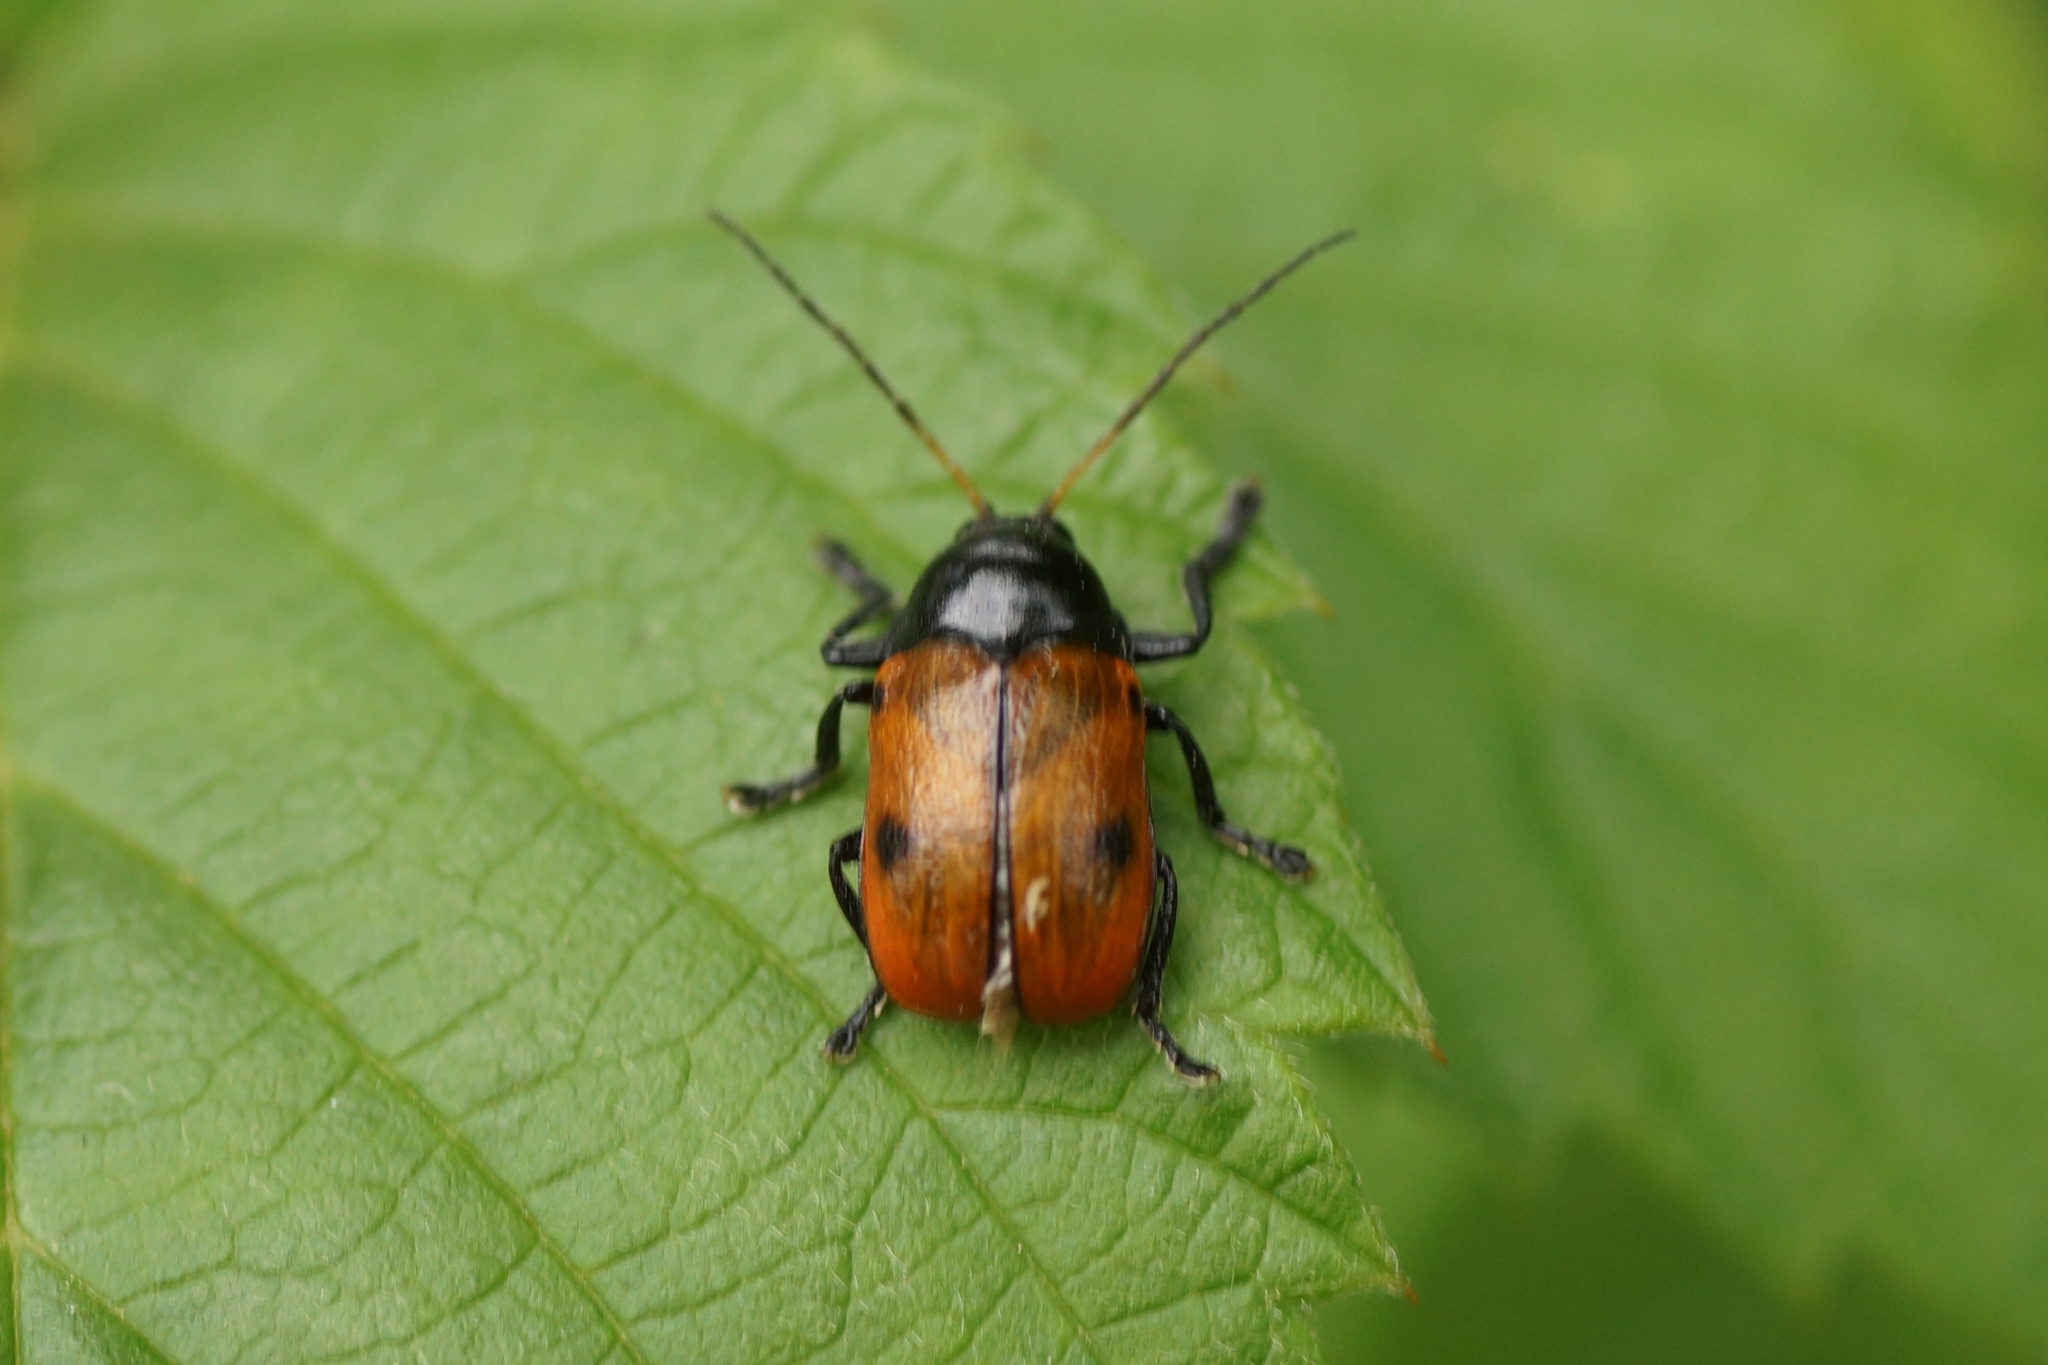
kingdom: Animalia
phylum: Arthropoda
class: Insecta
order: Coleoptera
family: Chrysomelidae
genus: Cryptocephalus
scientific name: Cryptocephalus coryli
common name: Hazel pot beetle
